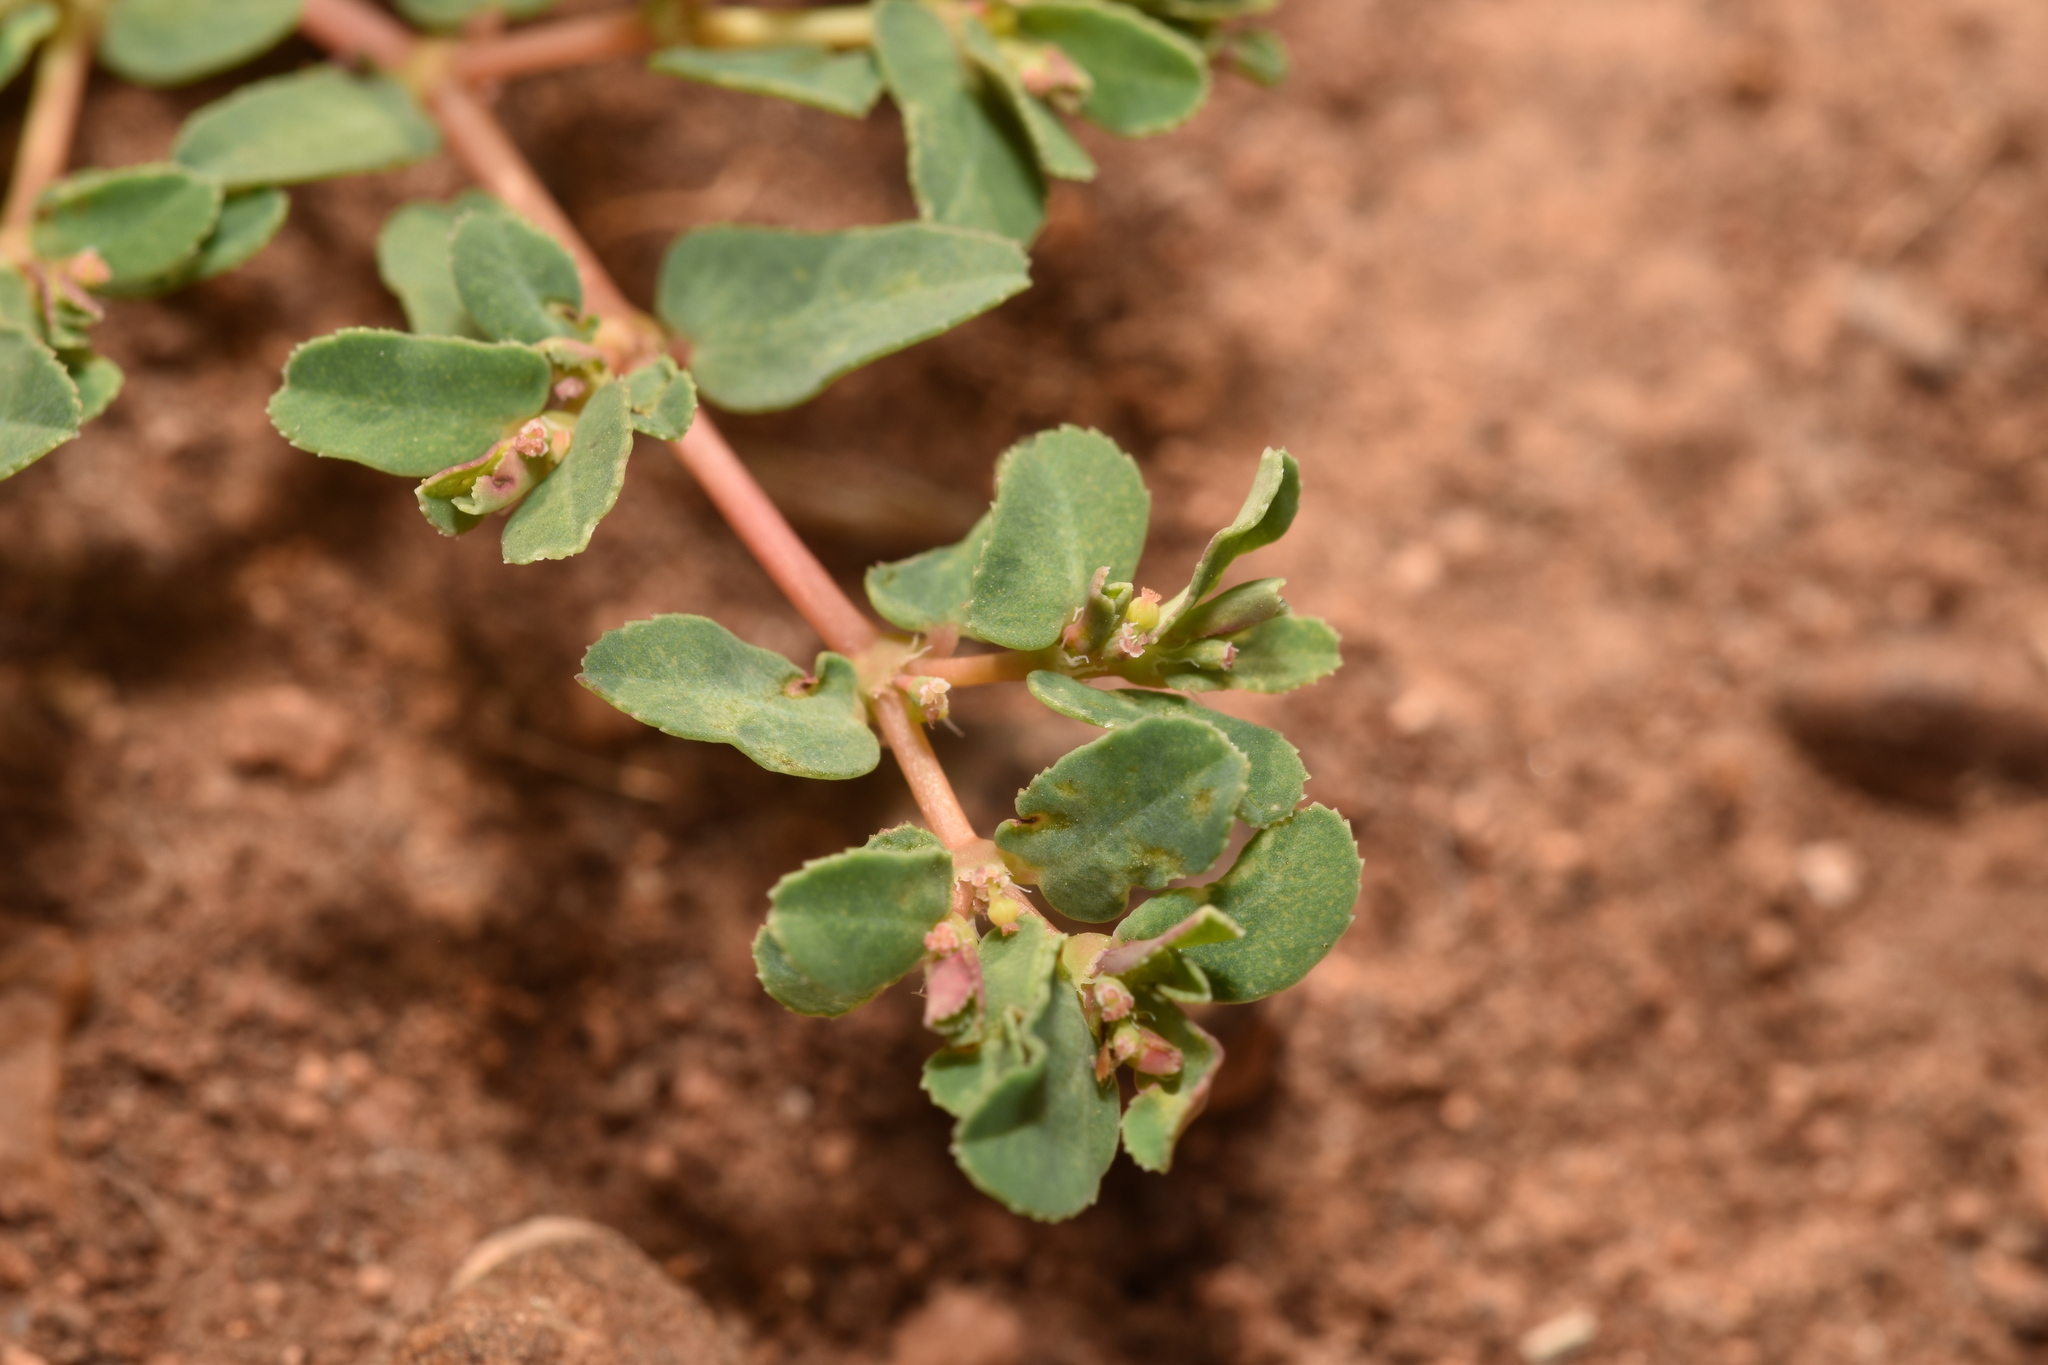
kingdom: Plantae
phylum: Tracheophyta
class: Magnoliopsida
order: Malpighiales
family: Euphorbiaceae
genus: Euphorbia
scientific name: Euphorbia glyptosperma
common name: Corrugate-seeded spurge
